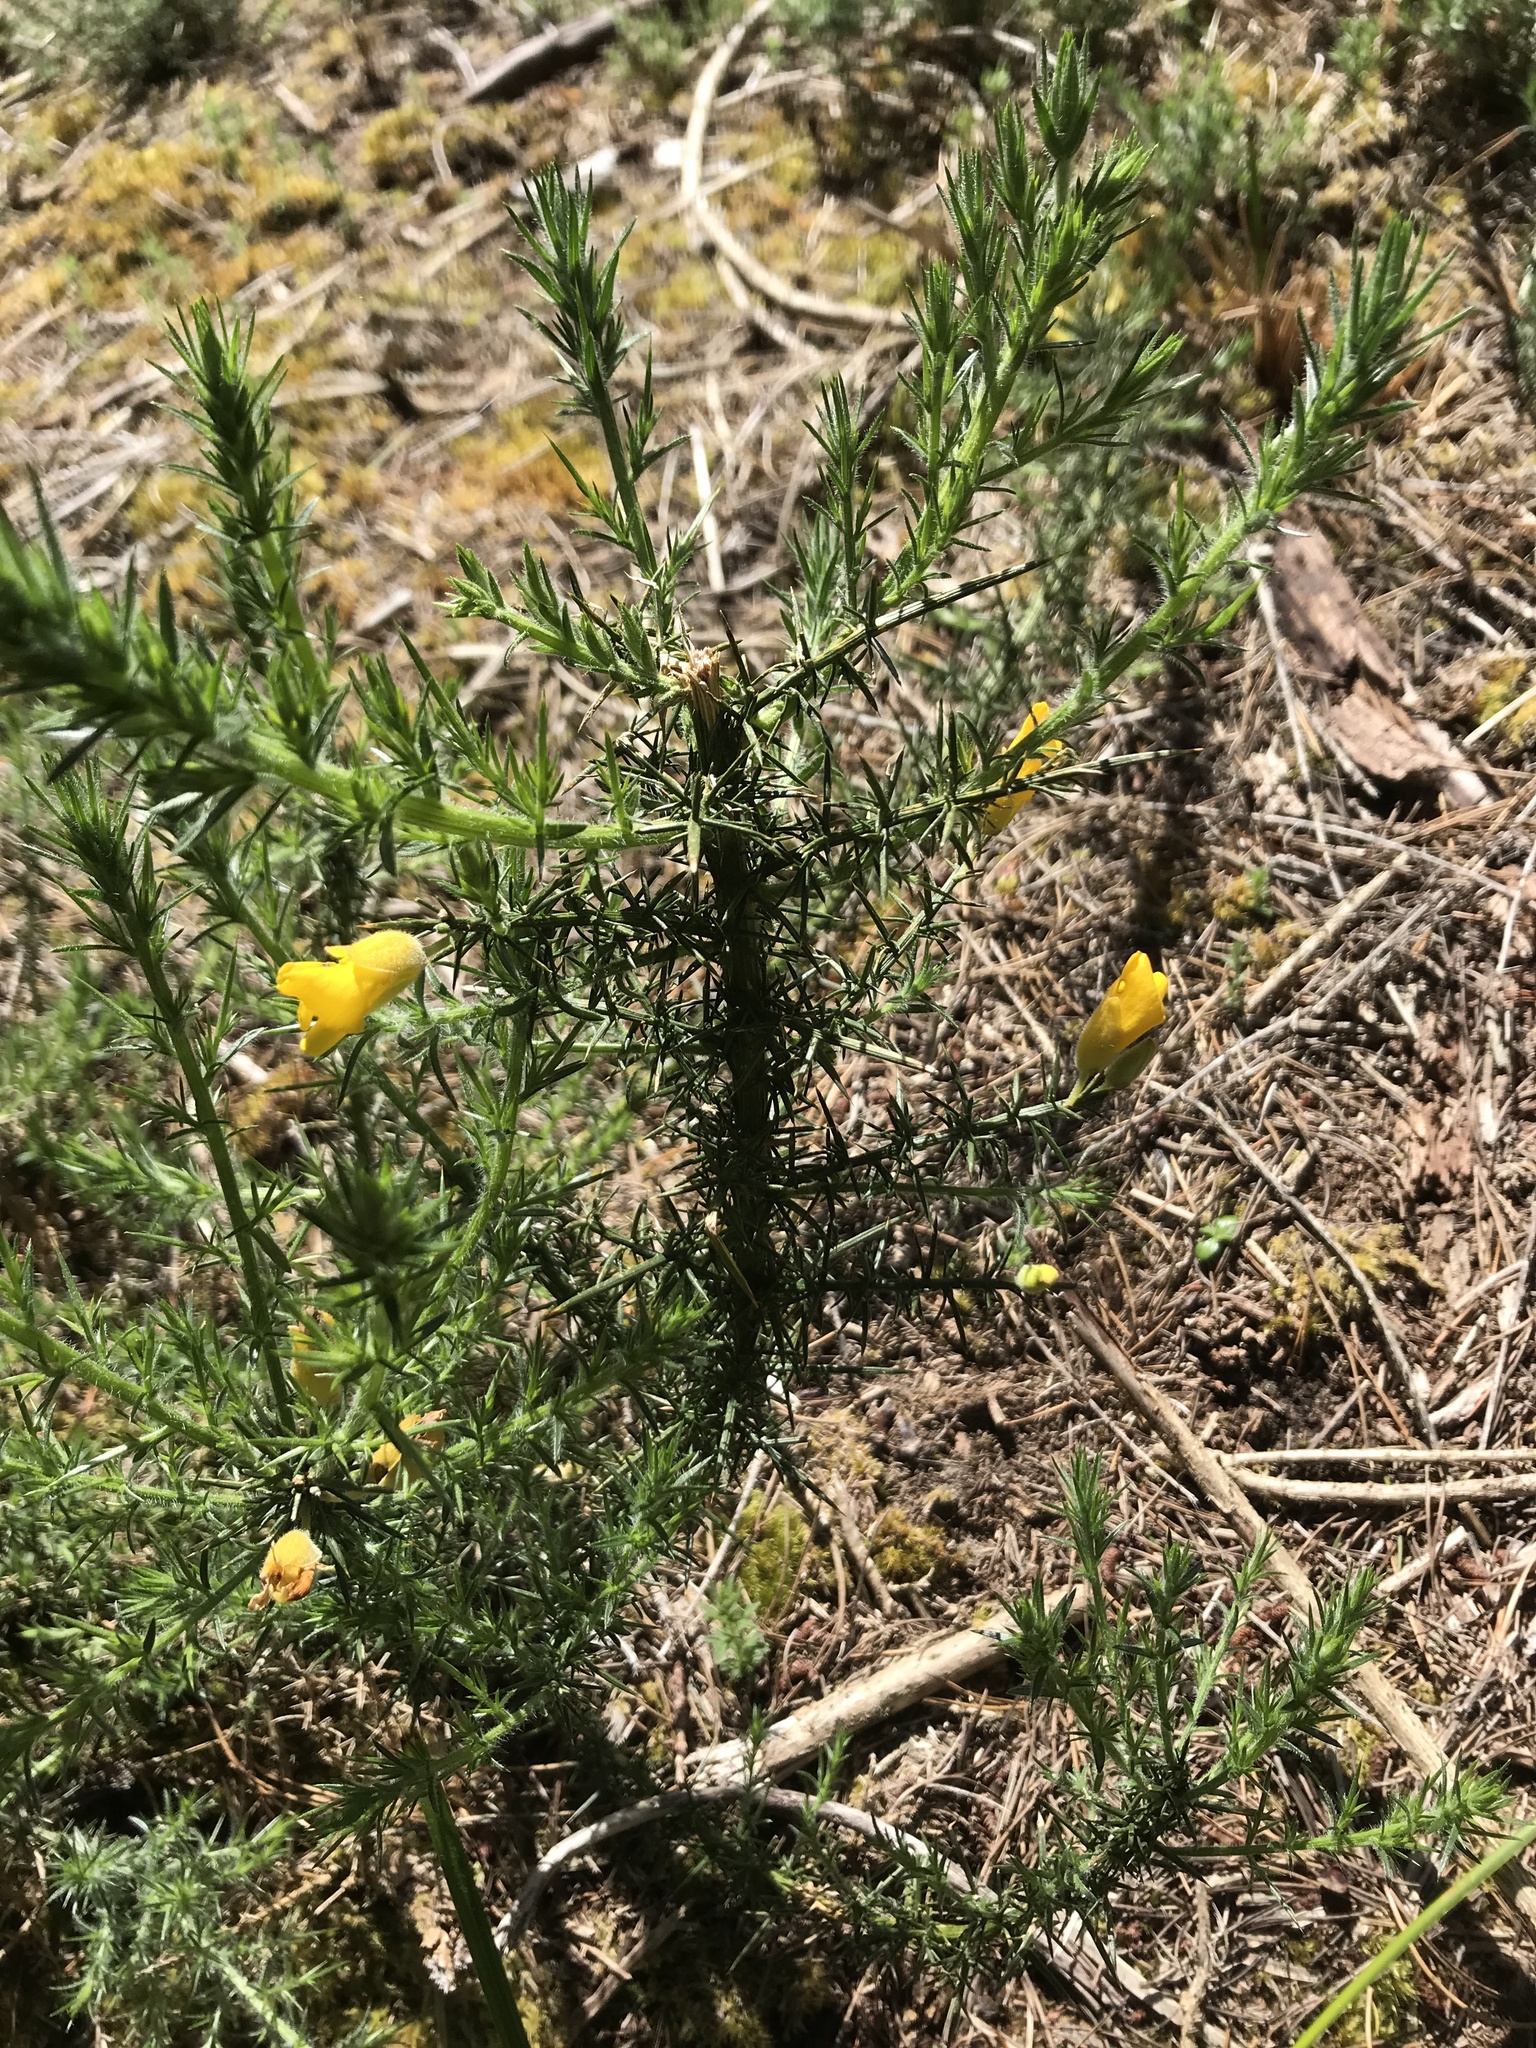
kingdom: Plantae
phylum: Tracheophyta
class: Magnoliopsida
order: Fabales
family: Fabaceae
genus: Ulex
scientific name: Ulex europaeus
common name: Common gorse
